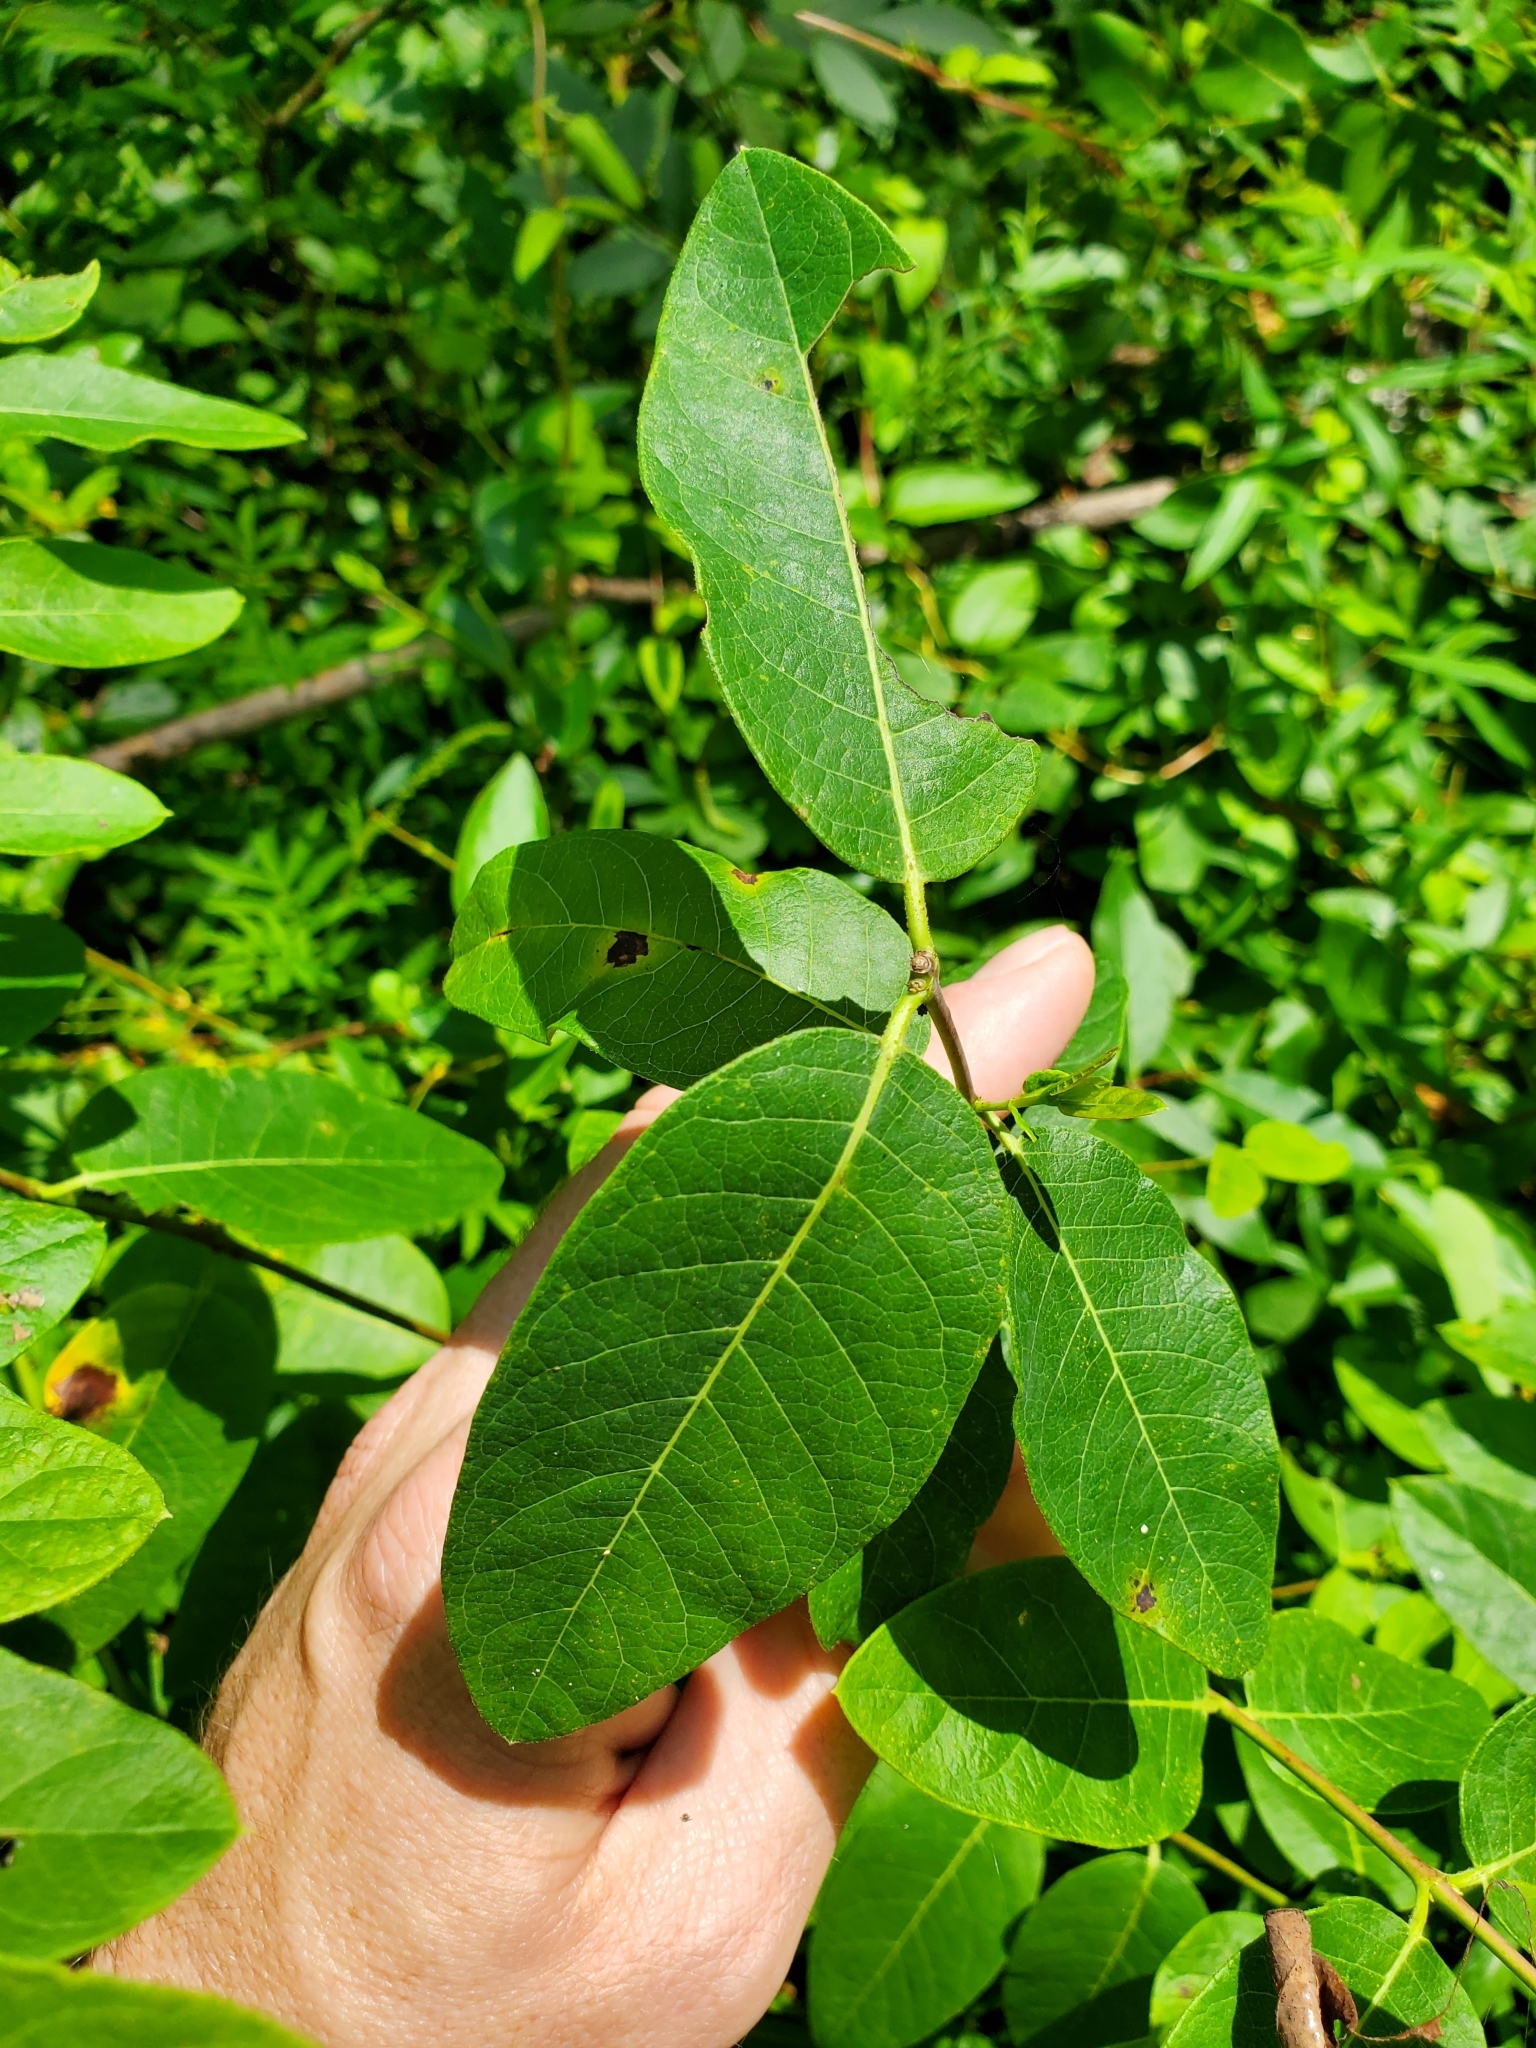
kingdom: Plantae
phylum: Tracheophyta
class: Magnoliopsida
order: Gentianales
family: Apocynaceae
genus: Apocynum
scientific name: Apocynum cannabinum
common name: Hemp dogbane
